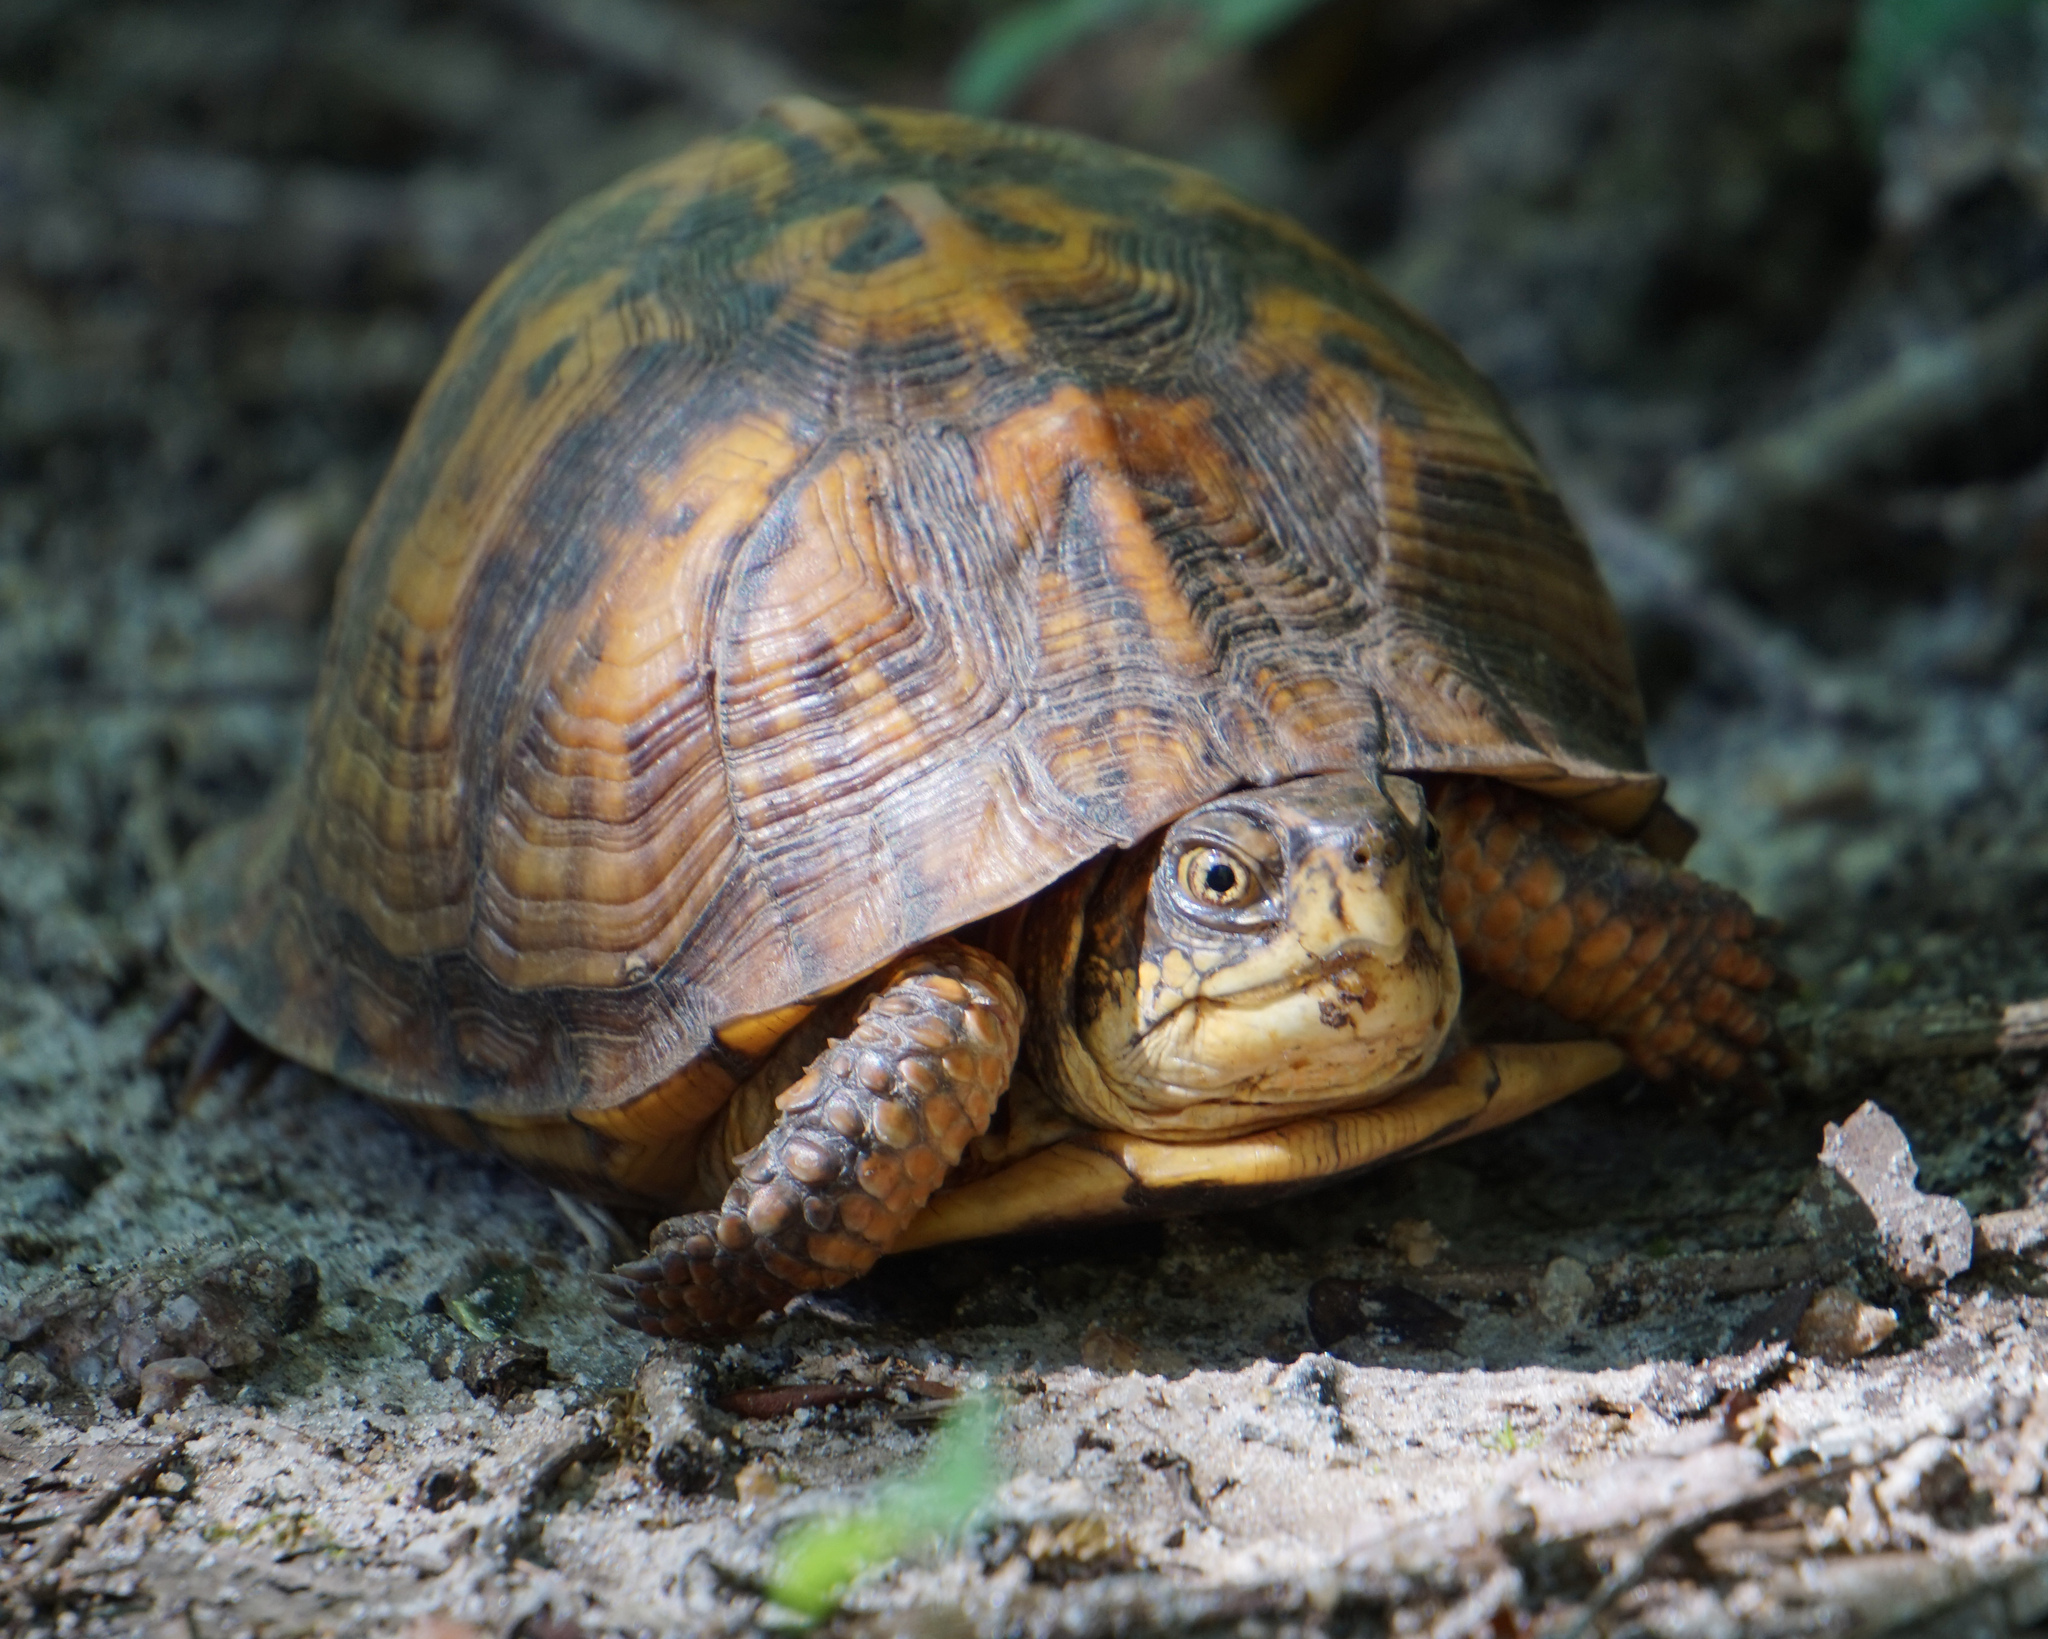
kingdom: Animalia
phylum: Chordata
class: Testudines
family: Emydidae
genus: Terrapene
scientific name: Terrapene carolina
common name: Common box turtle
